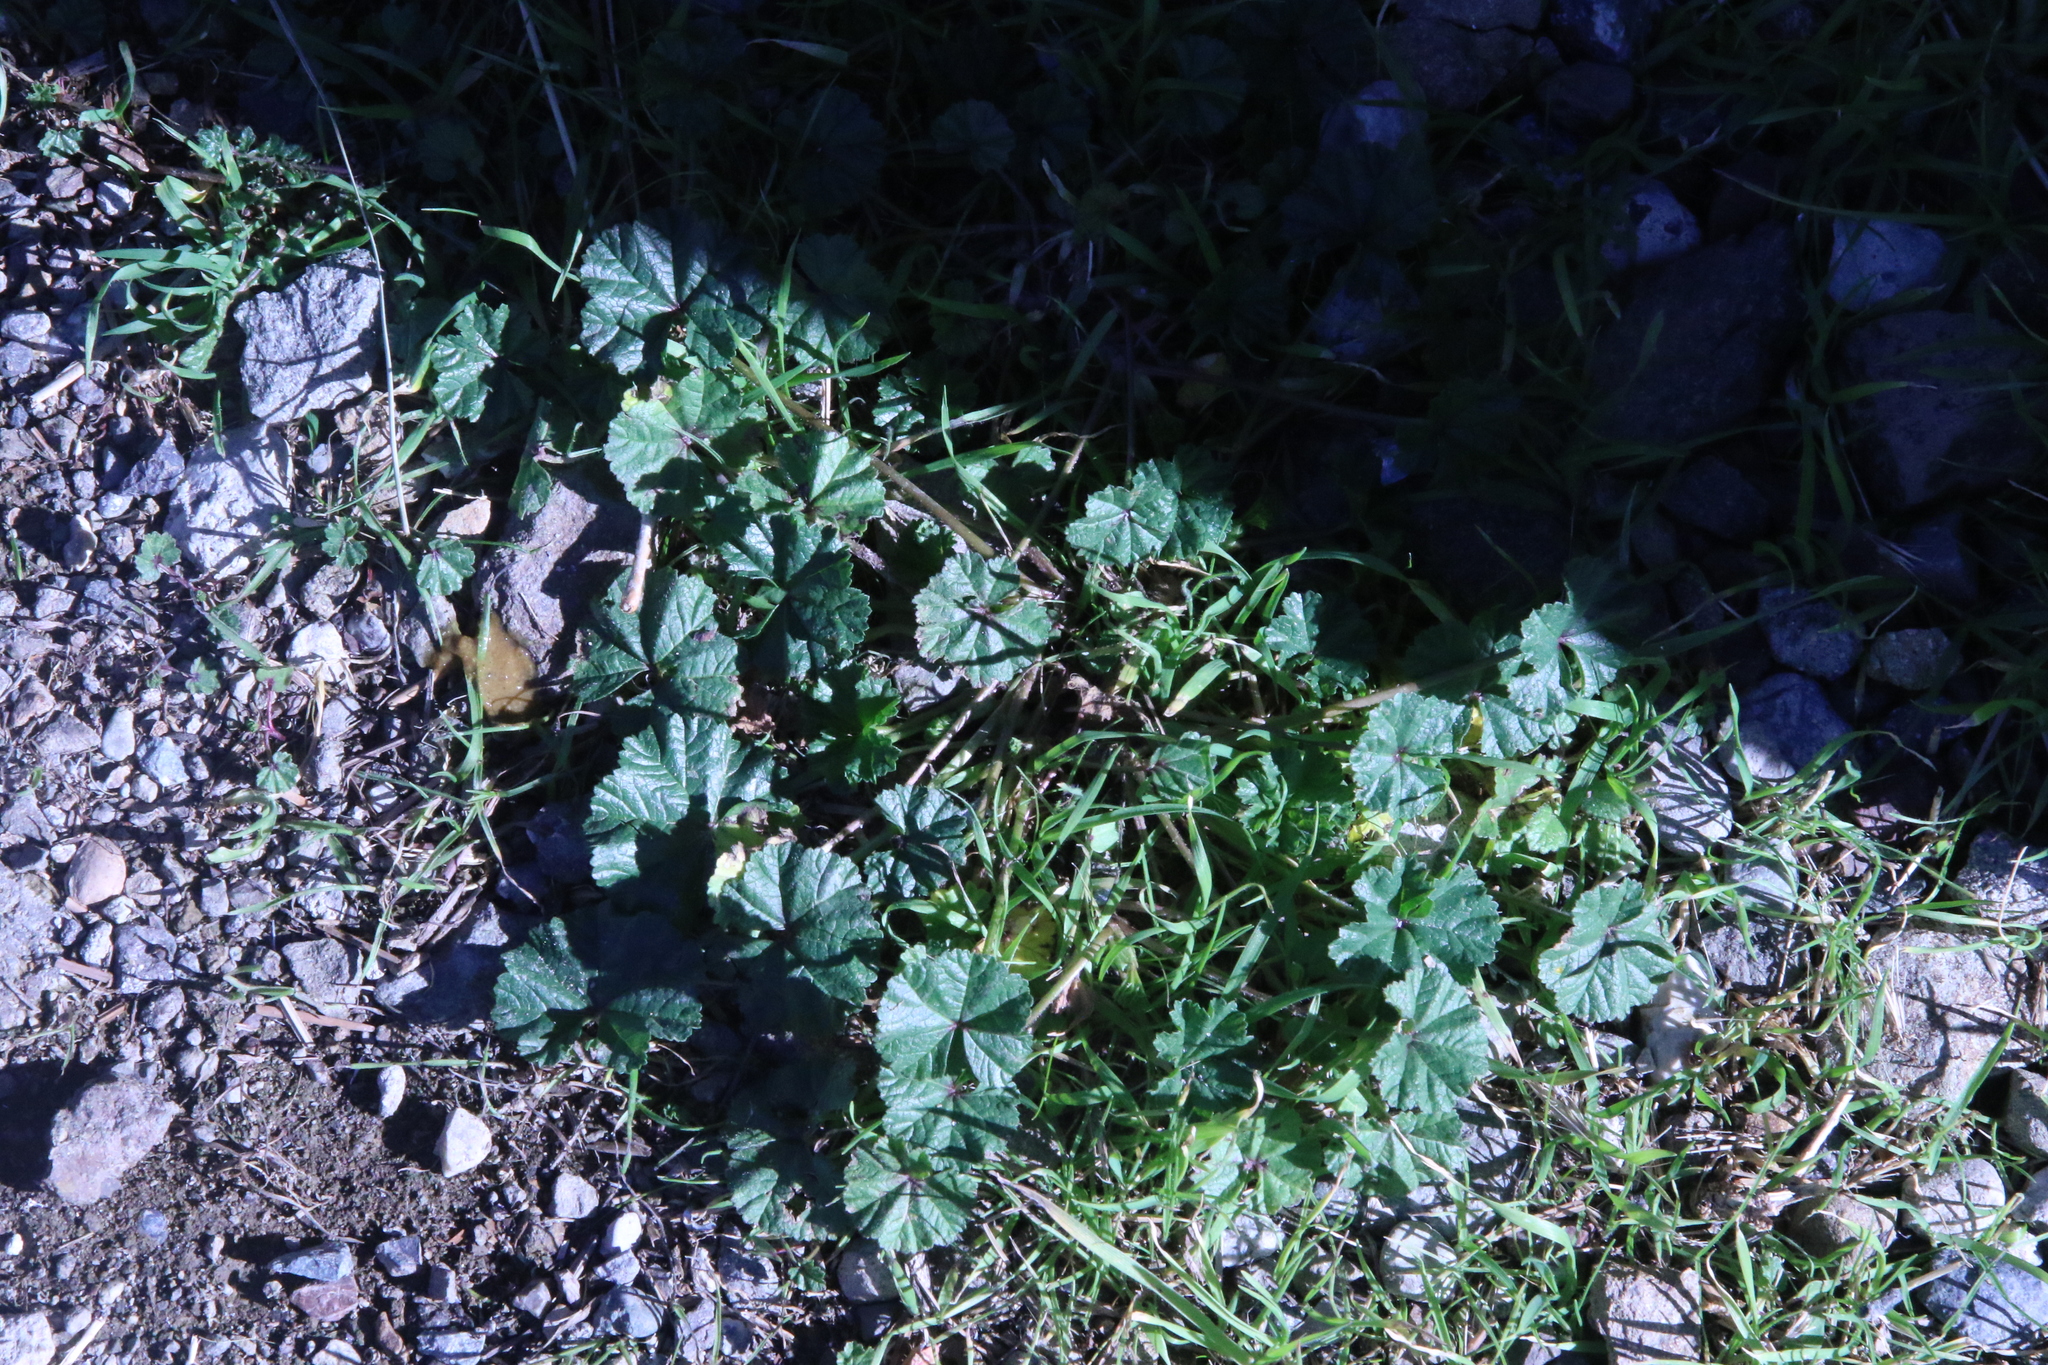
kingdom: Plantae
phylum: Tracheophyta
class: Magnoliopsida
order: Malvales
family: Malvaceae
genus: Malva
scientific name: Malva
